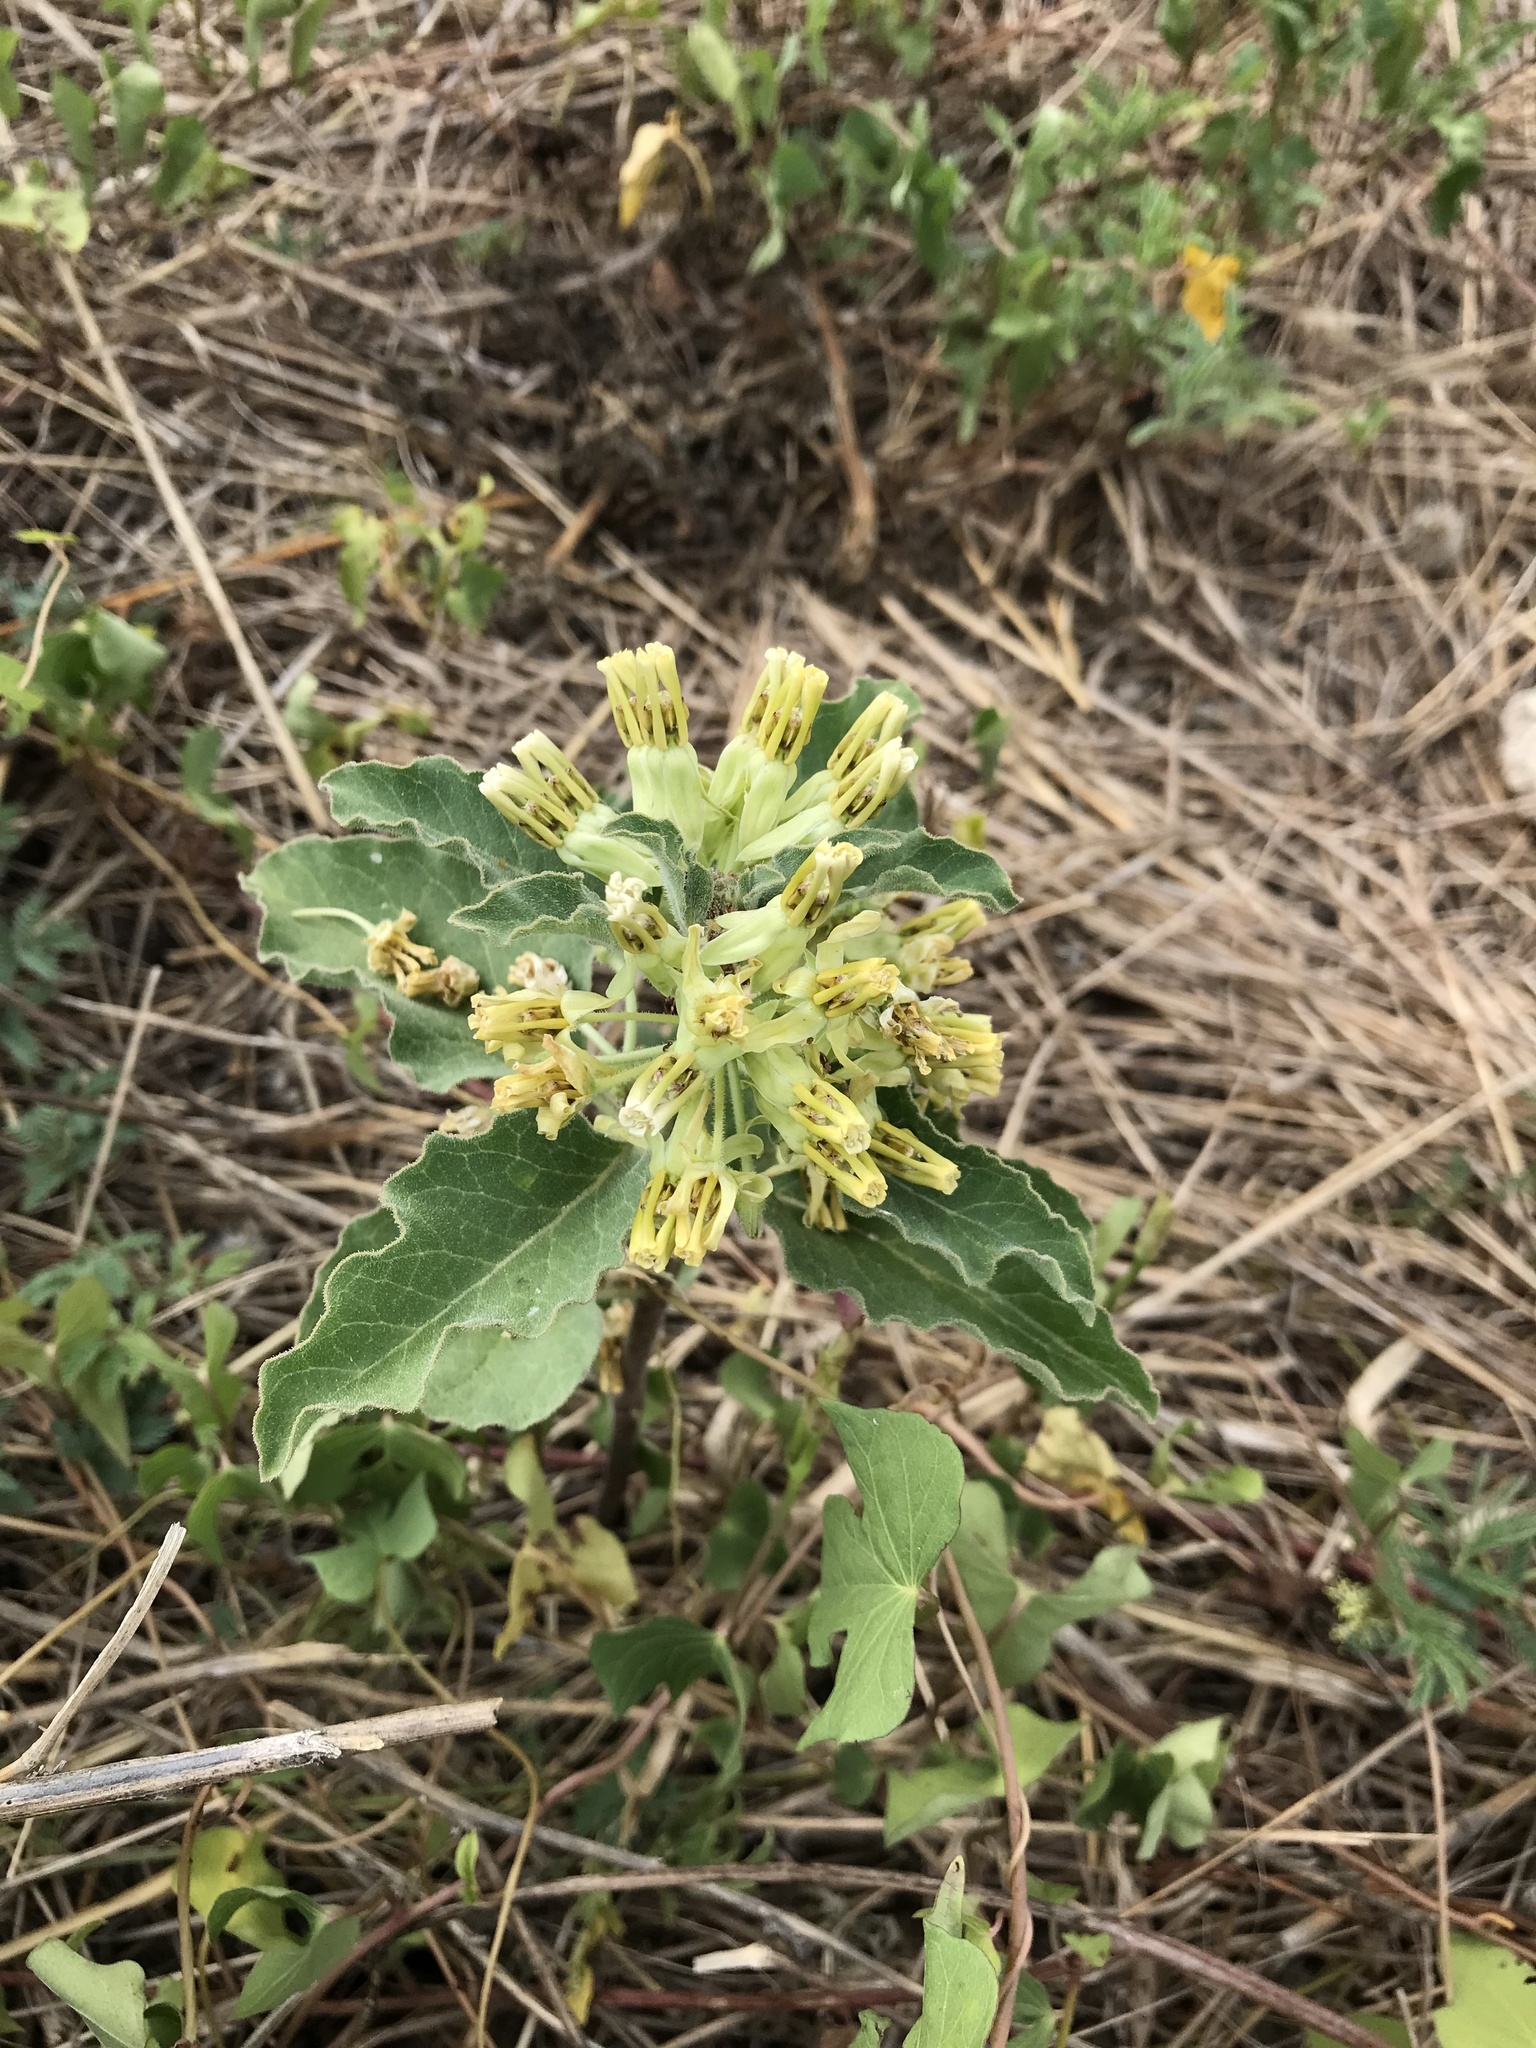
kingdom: Plantae
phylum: Tracheophyta
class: Magnoliopsida
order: Gentianales
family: Apocynaceae
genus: Asclepias
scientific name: Asclepias oenotheroides
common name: Zizotes milkweed
